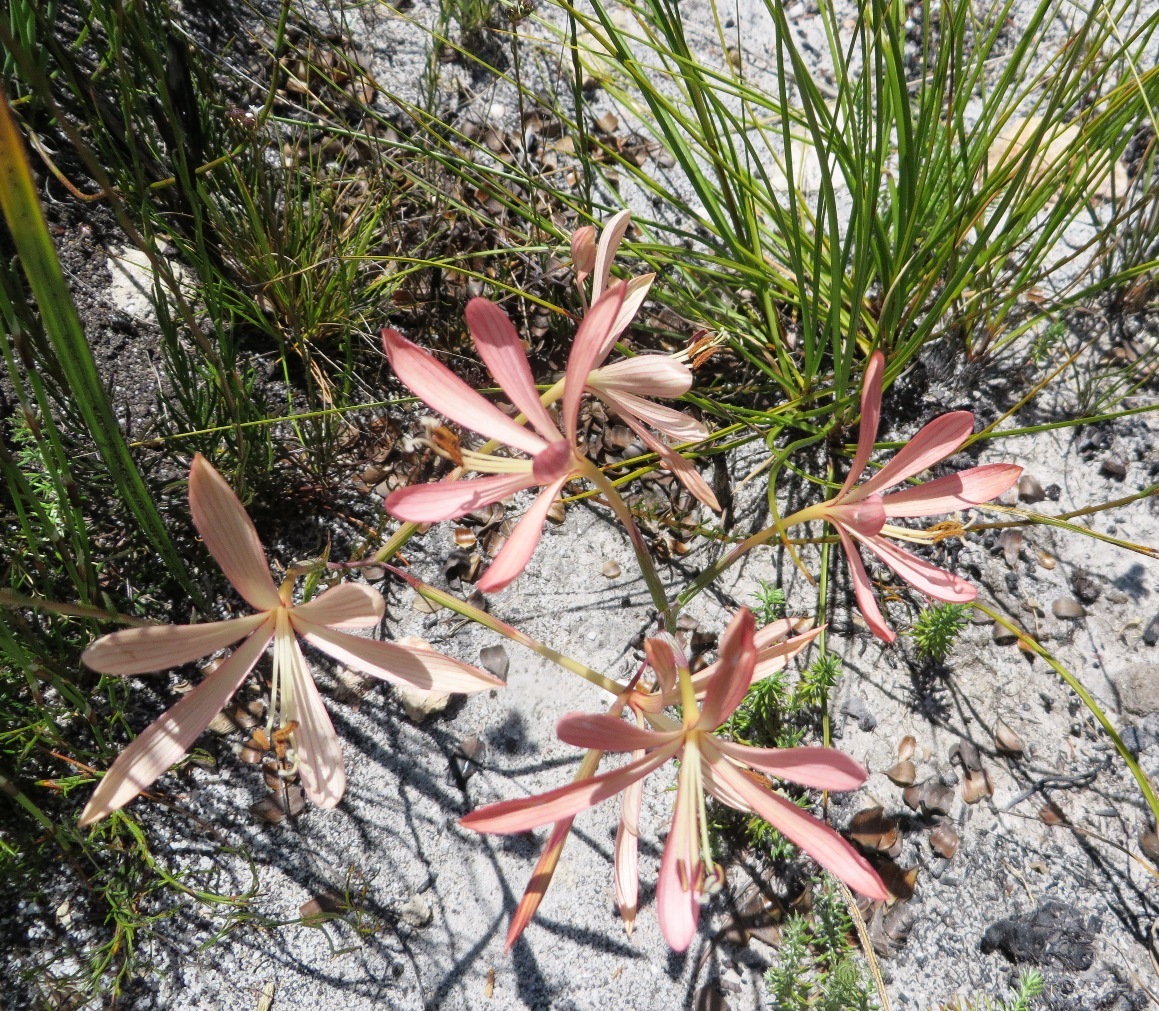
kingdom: Plantae
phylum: Tracheophyta
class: Liliopsida
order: Asparagales
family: Iridaceae
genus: Geissorhiza
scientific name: Geissorhiza exscapa
